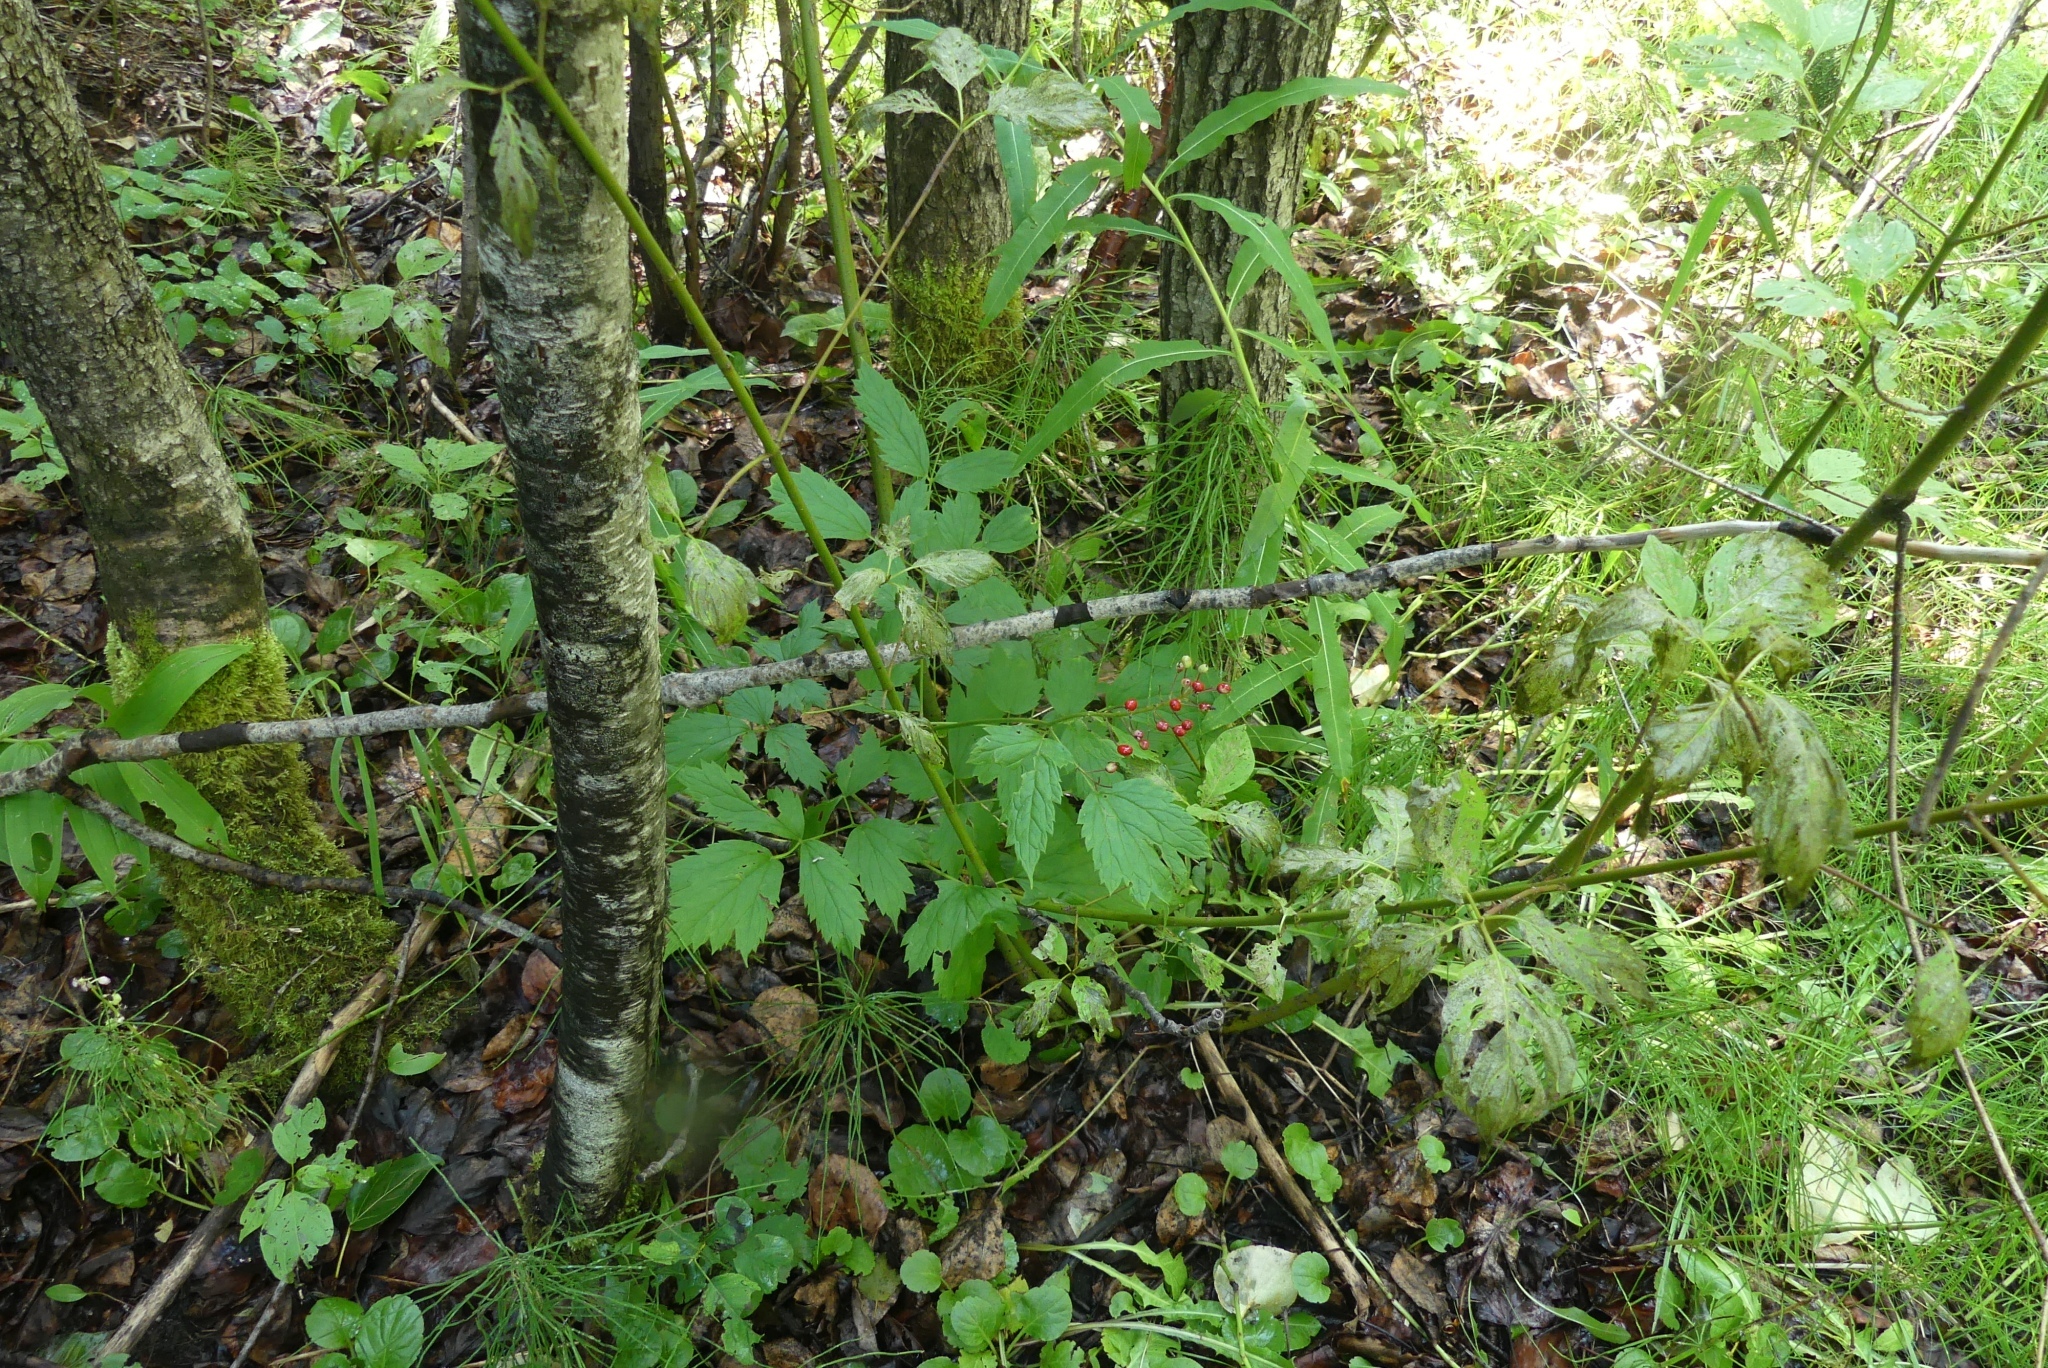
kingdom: Plantae
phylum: Tracheophyta
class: Magnoliopsida
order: Ranunculales
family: Ranunculaceae
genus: Actaea
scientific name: Actaea rubra
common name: Red baneberry
